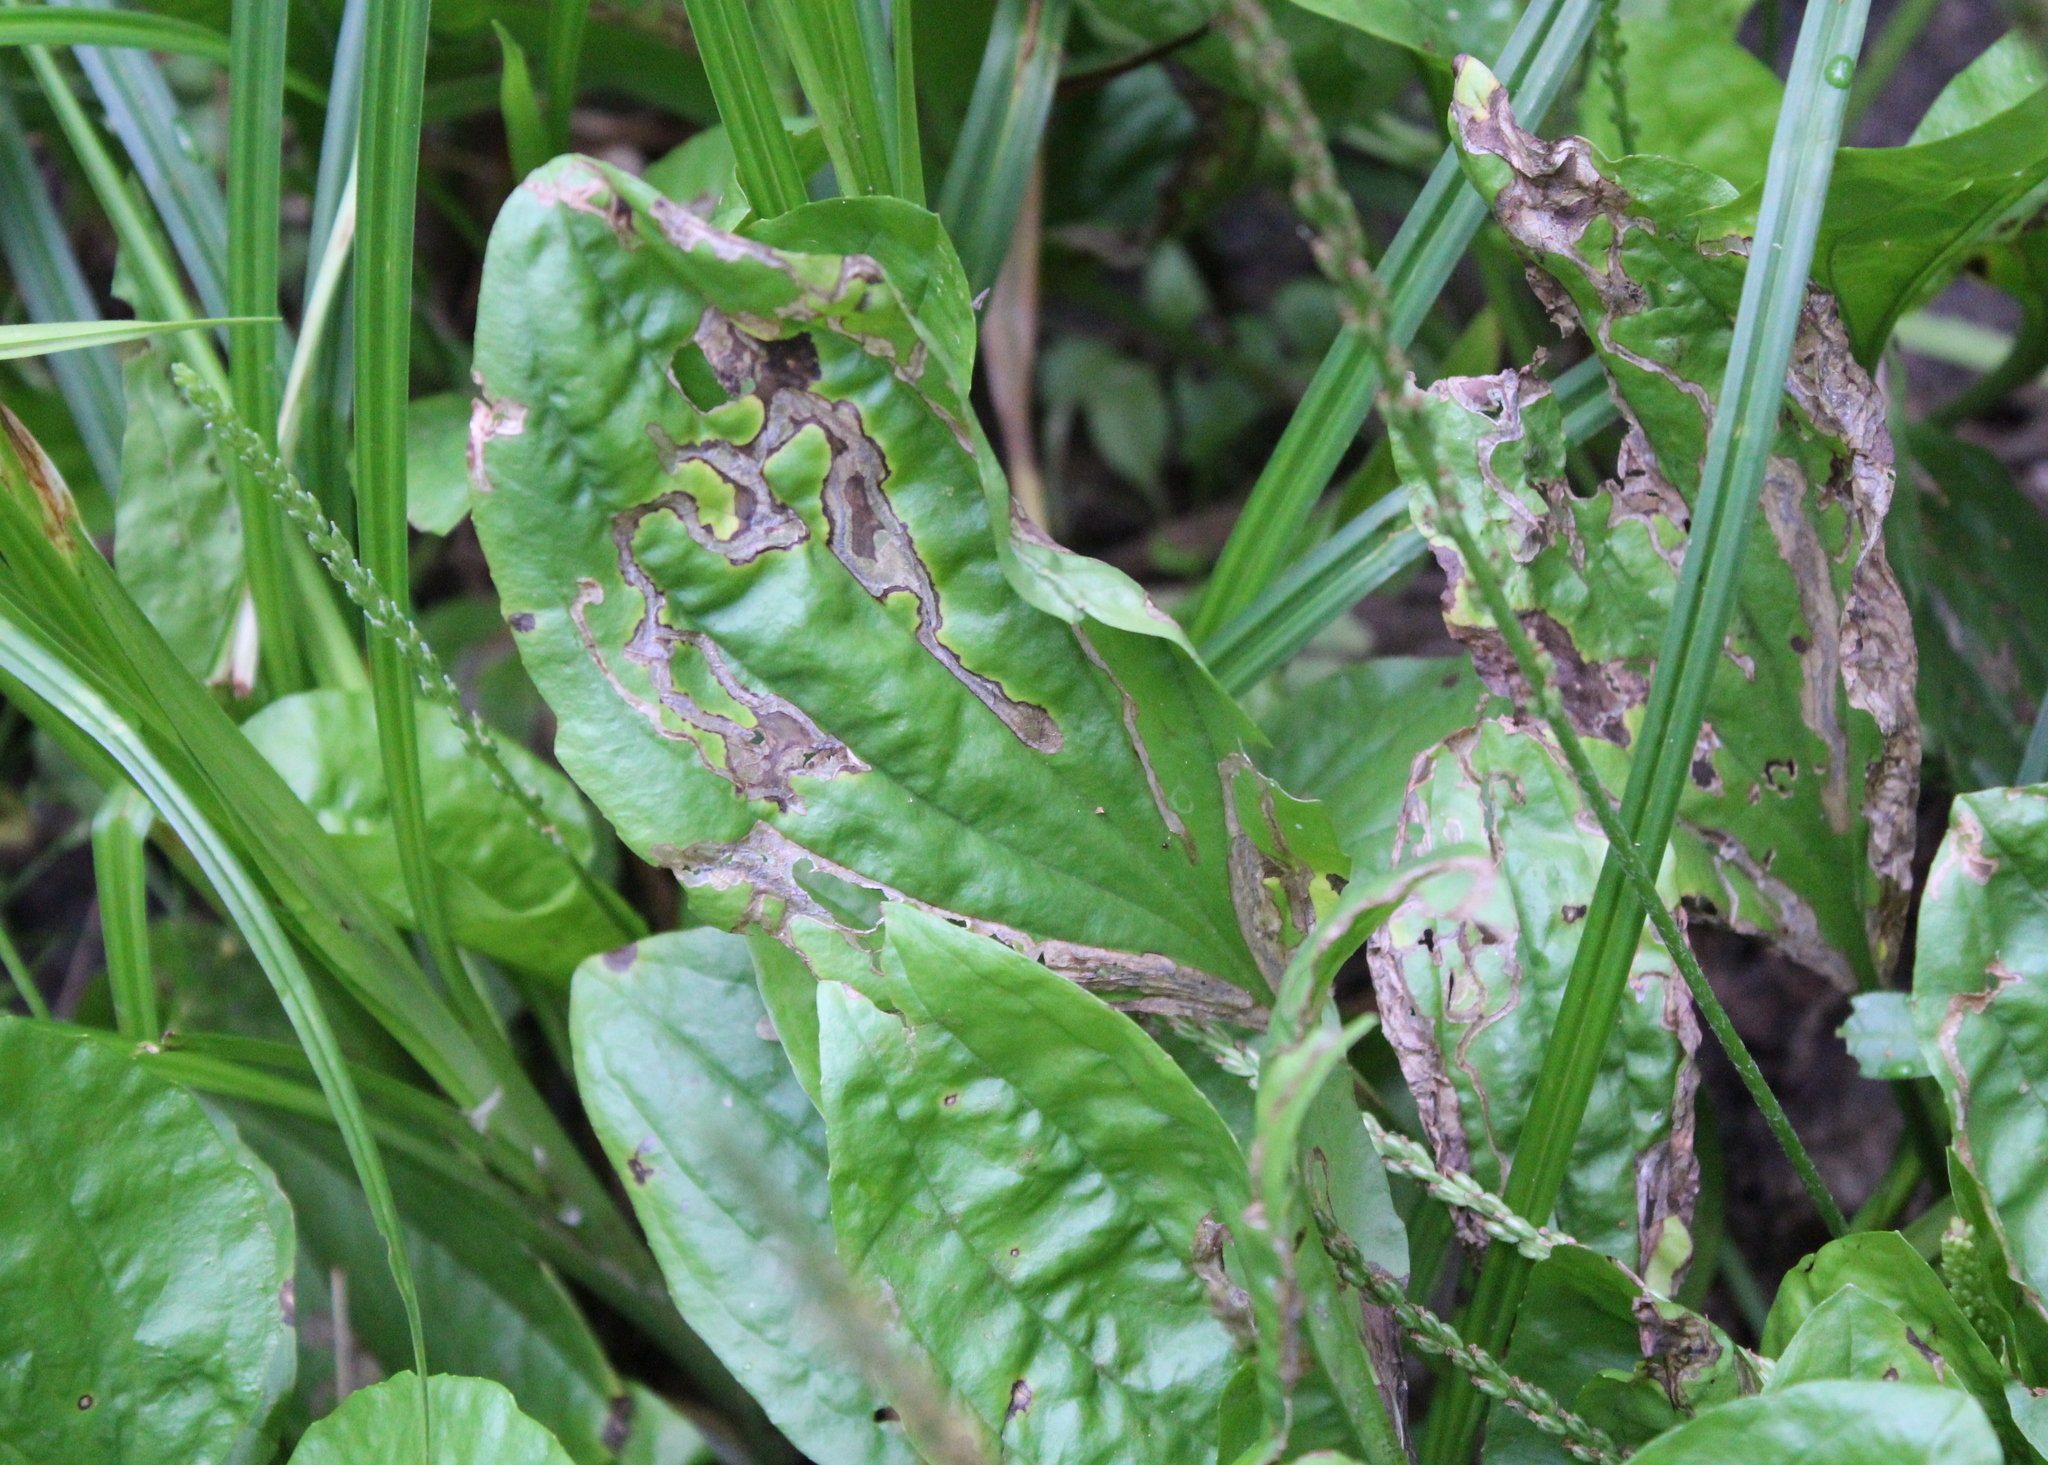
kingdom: Animalia
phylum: Arthropoda
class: Insecta
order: Coleoptera
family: Chrysomelidae
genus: Dibolia
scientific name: Dibolia borealis
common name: Northern plantain flea beetle
